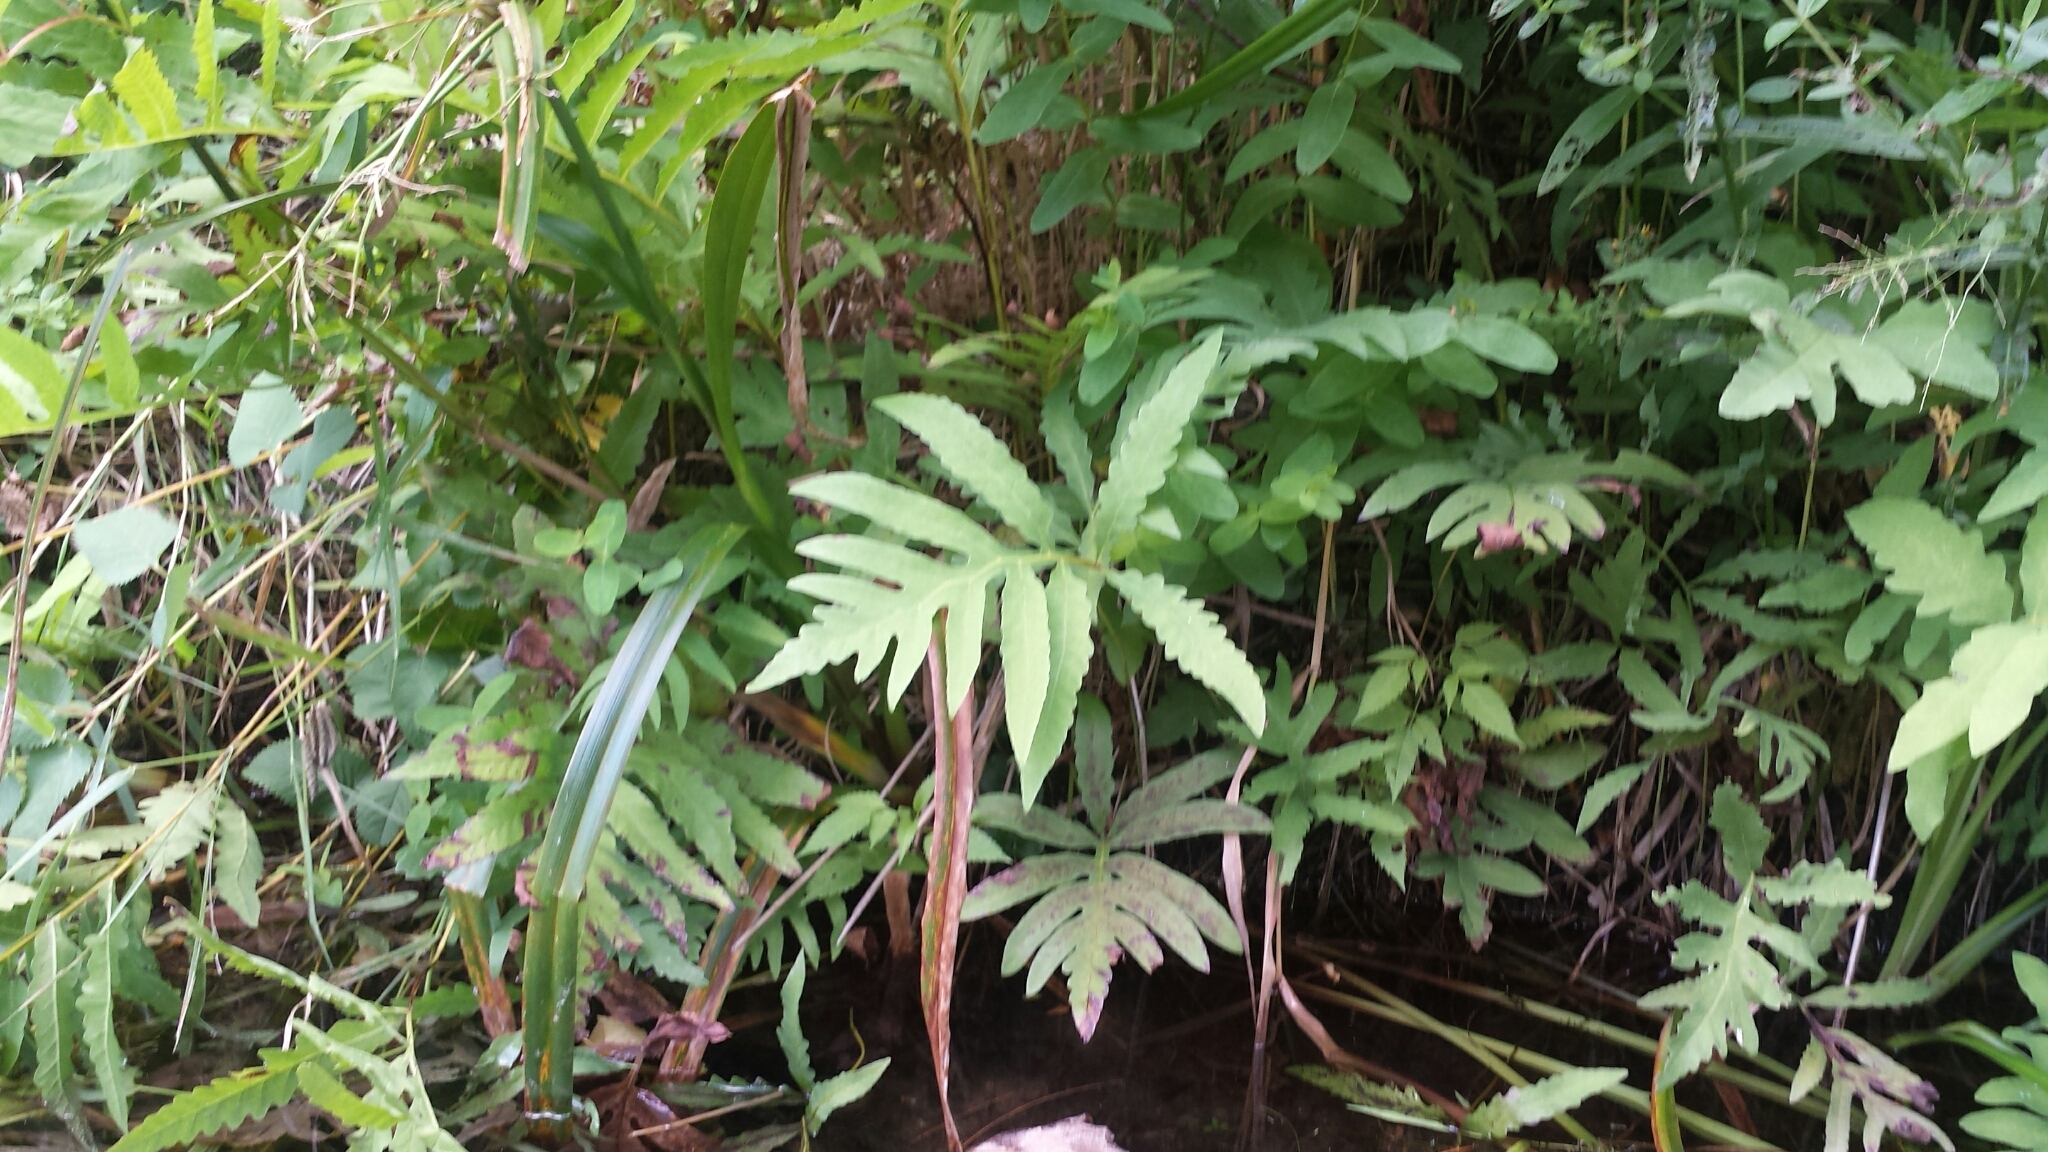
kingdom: Plantae
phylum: Tracheophyta
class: Polypodiopsida
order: Polypodiales
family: Onocleaceae
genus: Onoclea
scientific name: Onoclea sensibilis
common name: Sensitive fern
